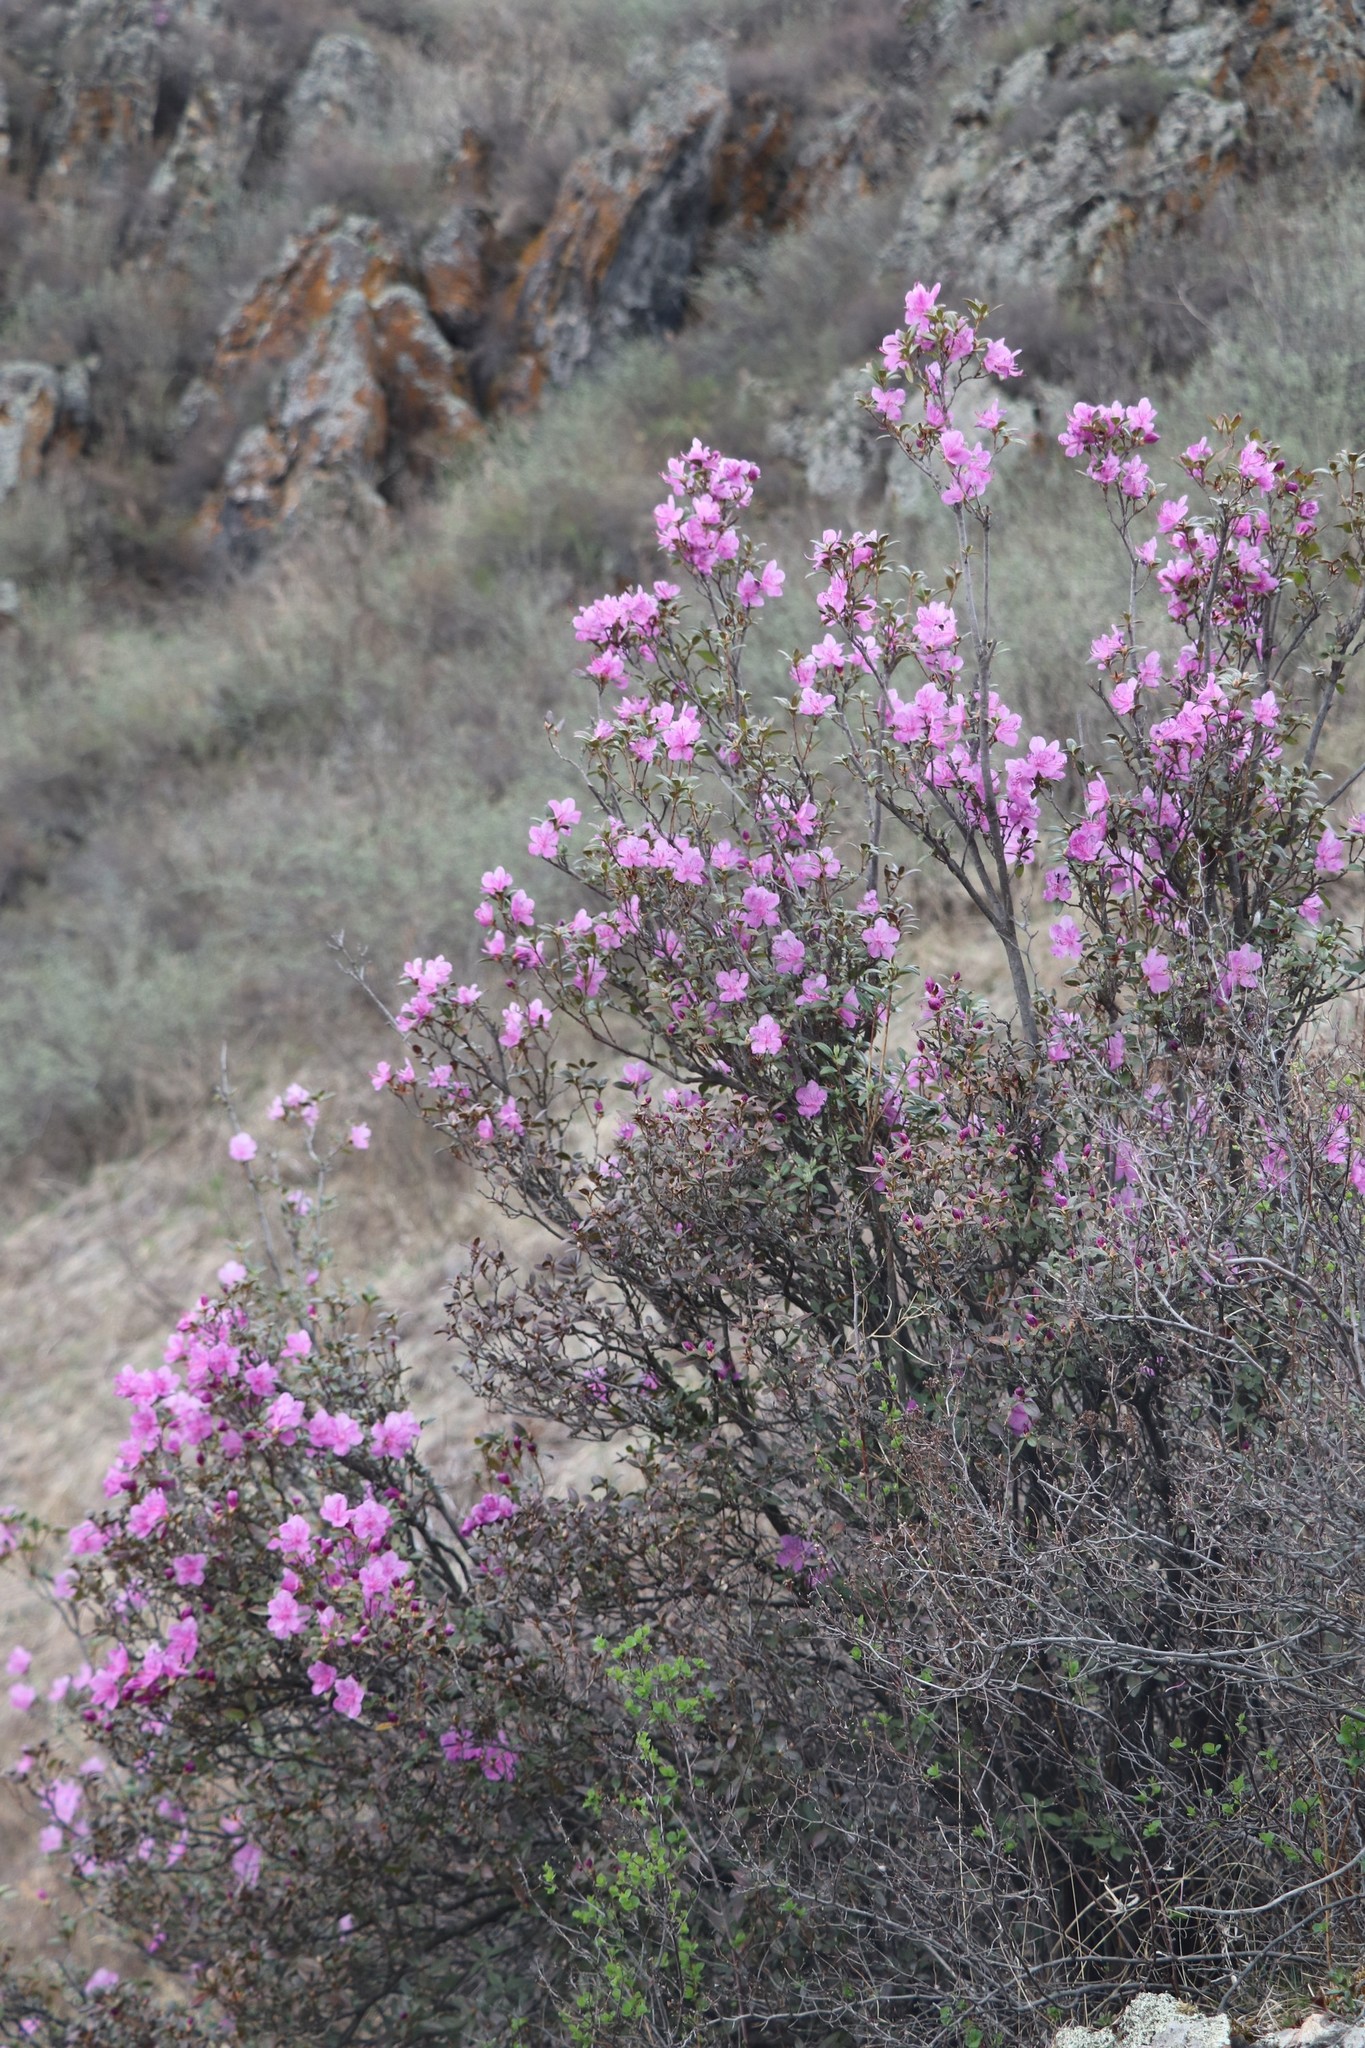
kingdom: Plantae
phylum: Tracheophyta
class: Magnoliopsida
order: Ericales
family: Ericaceae
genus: Rhododendron
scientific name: Rhododendron dauricum
